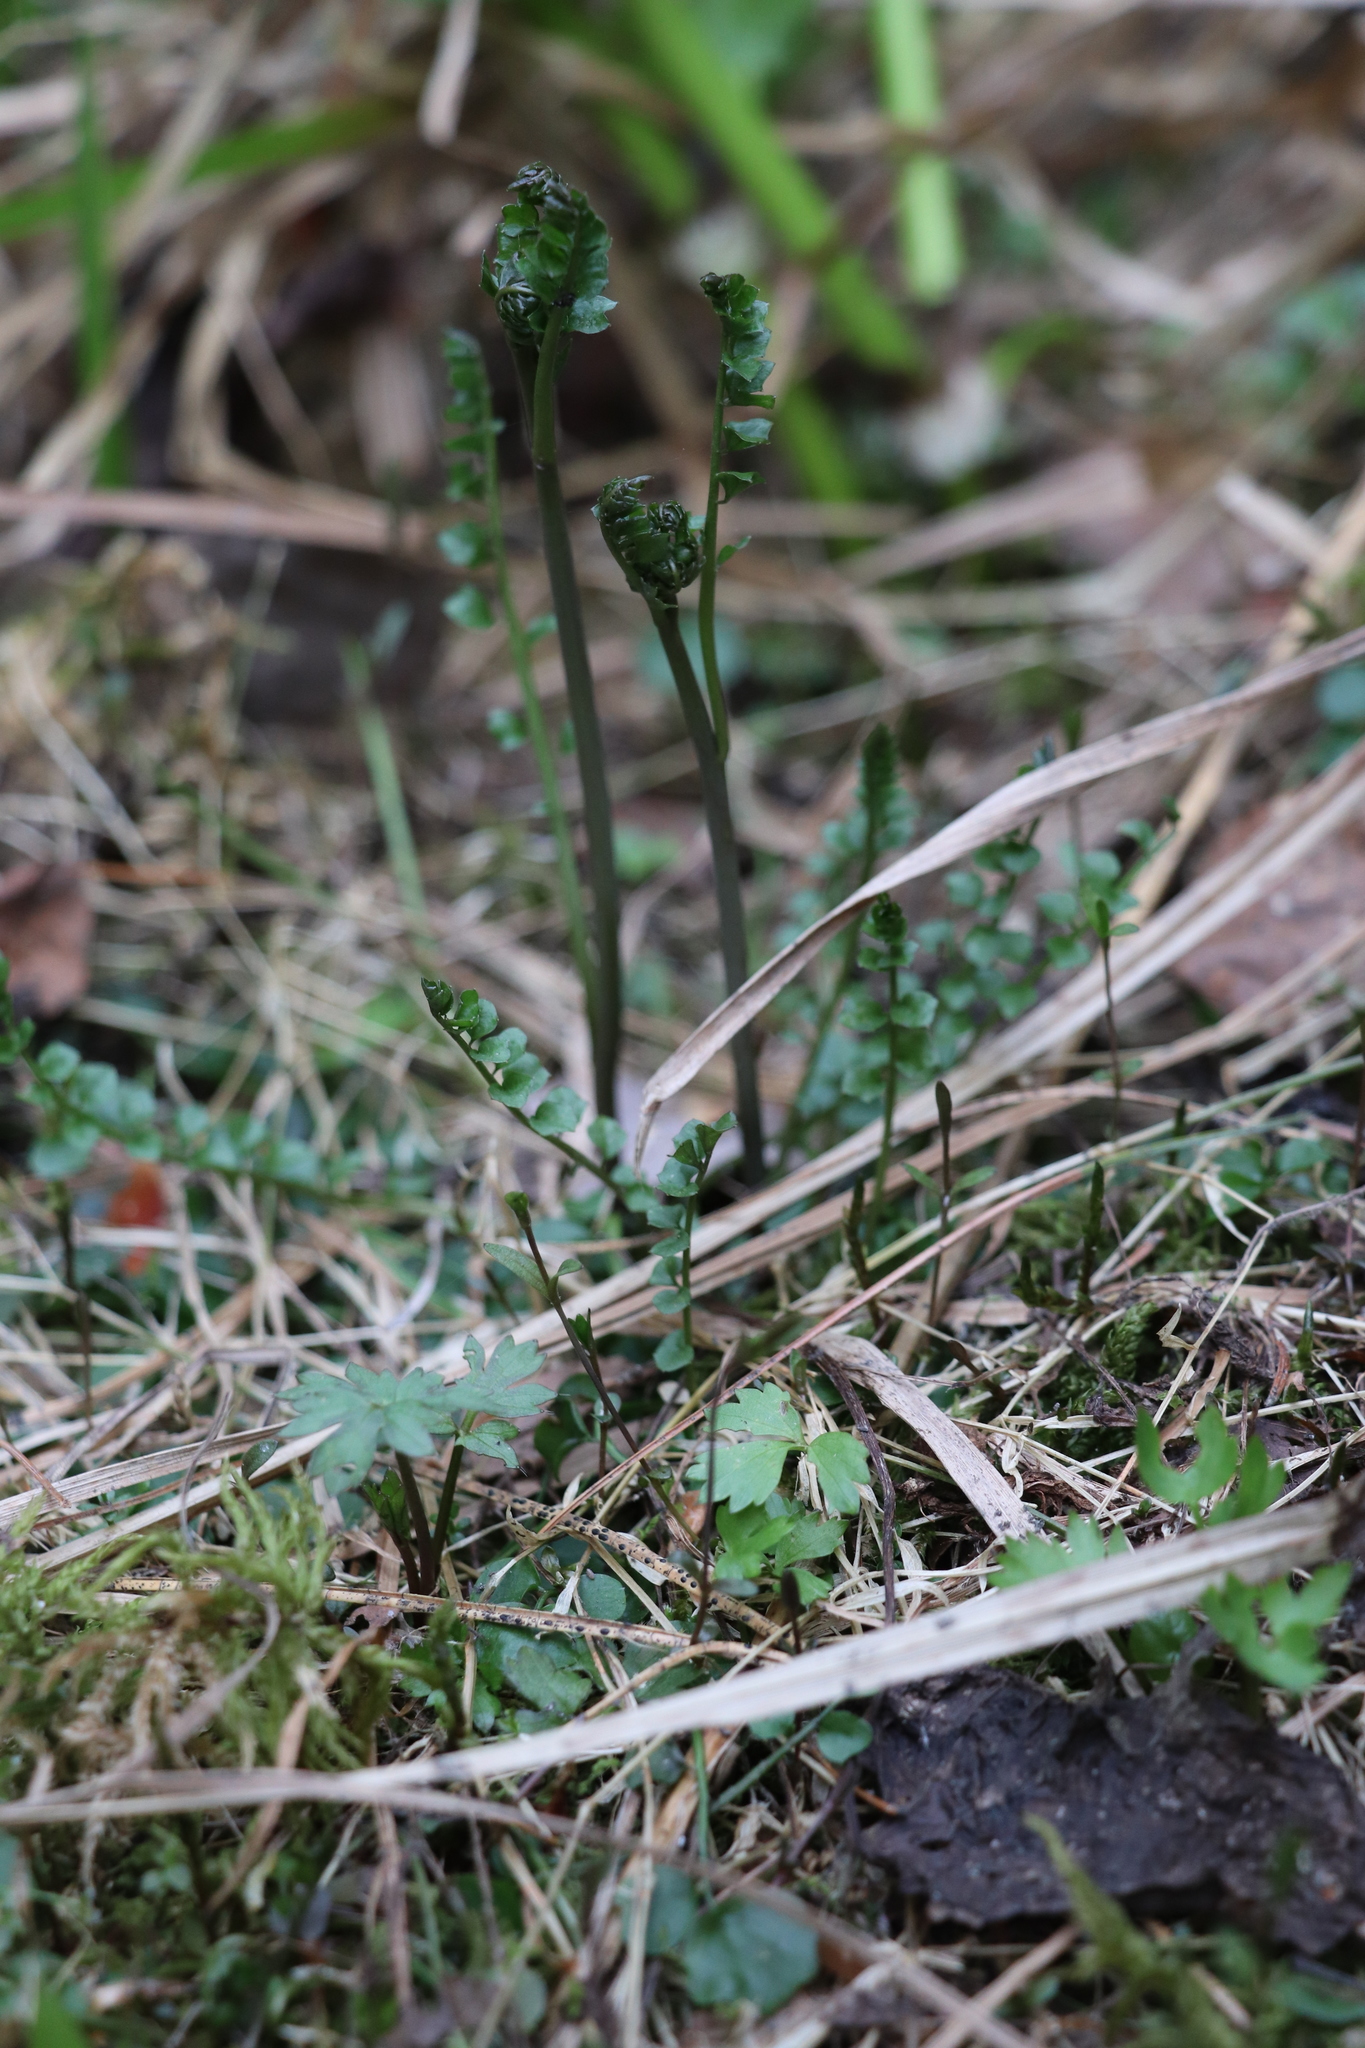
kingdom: Plantae
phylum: Tracheophyta
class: Magnoliopsida
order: Brassicales
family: Brassicaceae
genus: Cardamine
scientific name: Cardamine dentata
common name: Toothed bittercress
